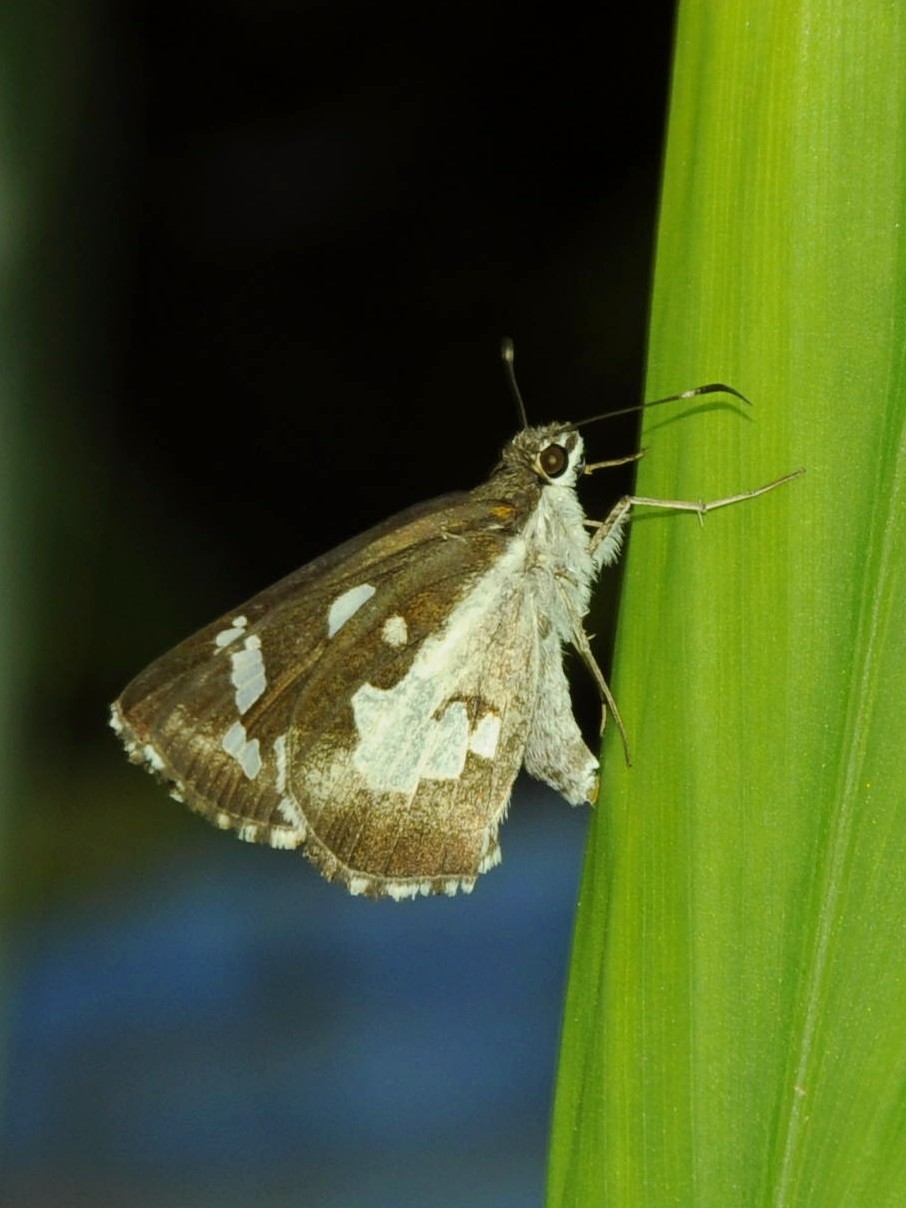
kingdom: Animalia
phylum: Arthropoda
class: Insecta
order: Lepidoptera
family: Hesperiidae
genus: Udaspes
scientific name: Udaspes folus
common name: Grass demon
